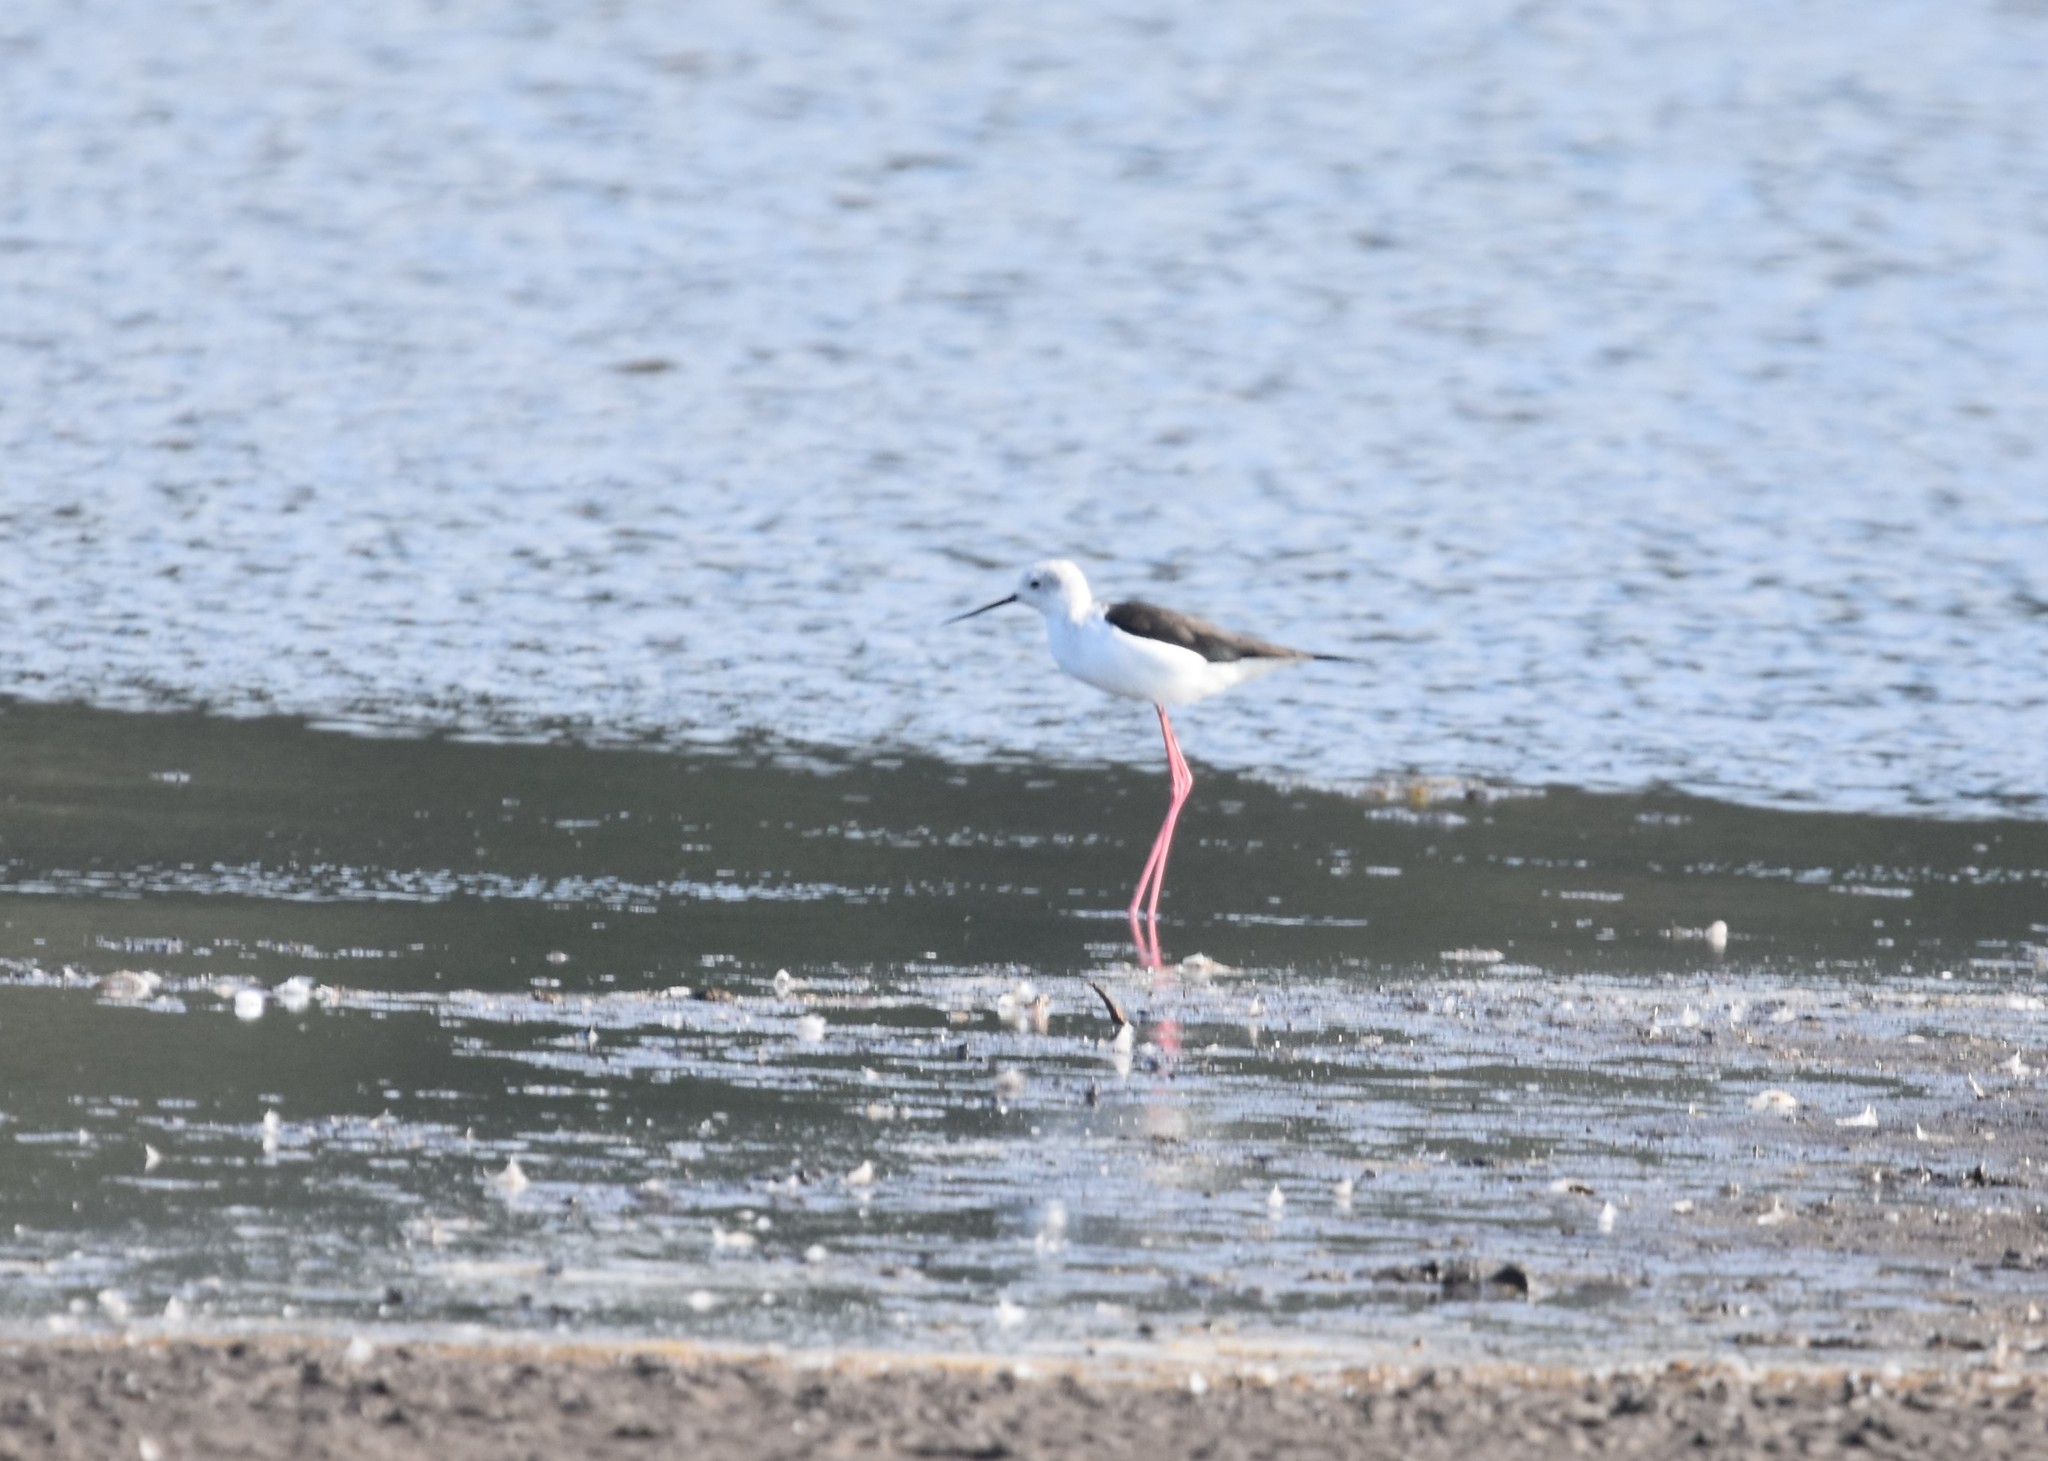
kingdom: Animalia
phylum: Chordata
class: Aves
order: Charadriiformes
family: Recurvirostridae
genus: Himantopus
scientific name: Himantopus himantopus
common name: Black-winged stilt
